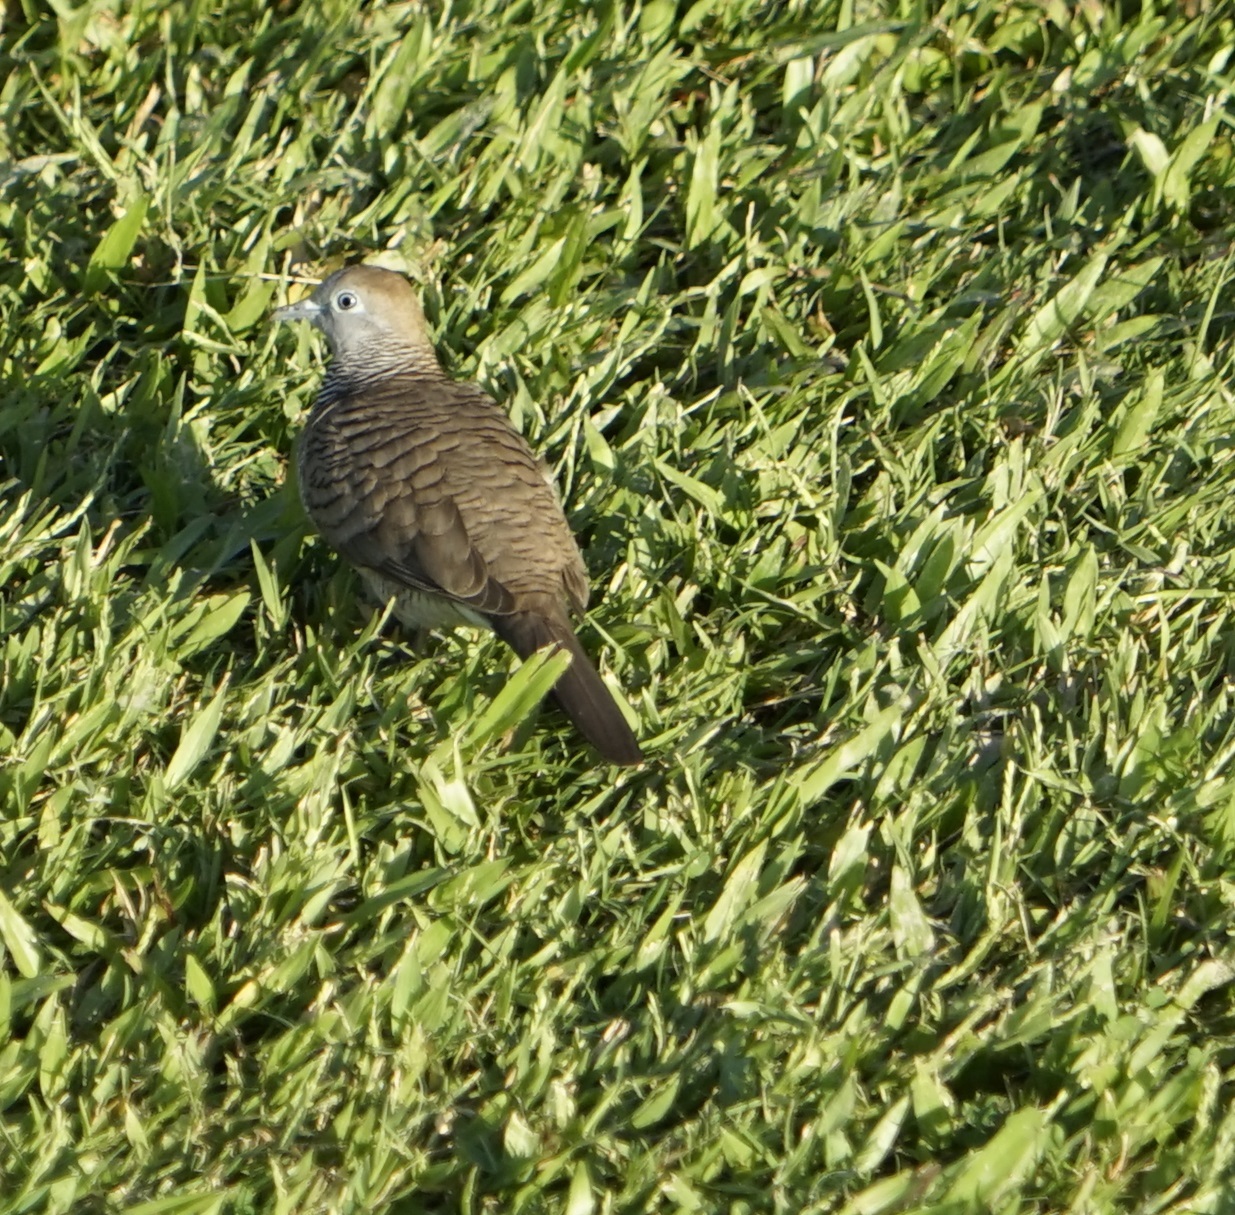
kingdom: Animalia
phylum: Chordata
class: Aves
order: Columbiformes
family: Columbidae
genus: Geopelia
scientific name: Geopelia striata
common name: Zebra dove
